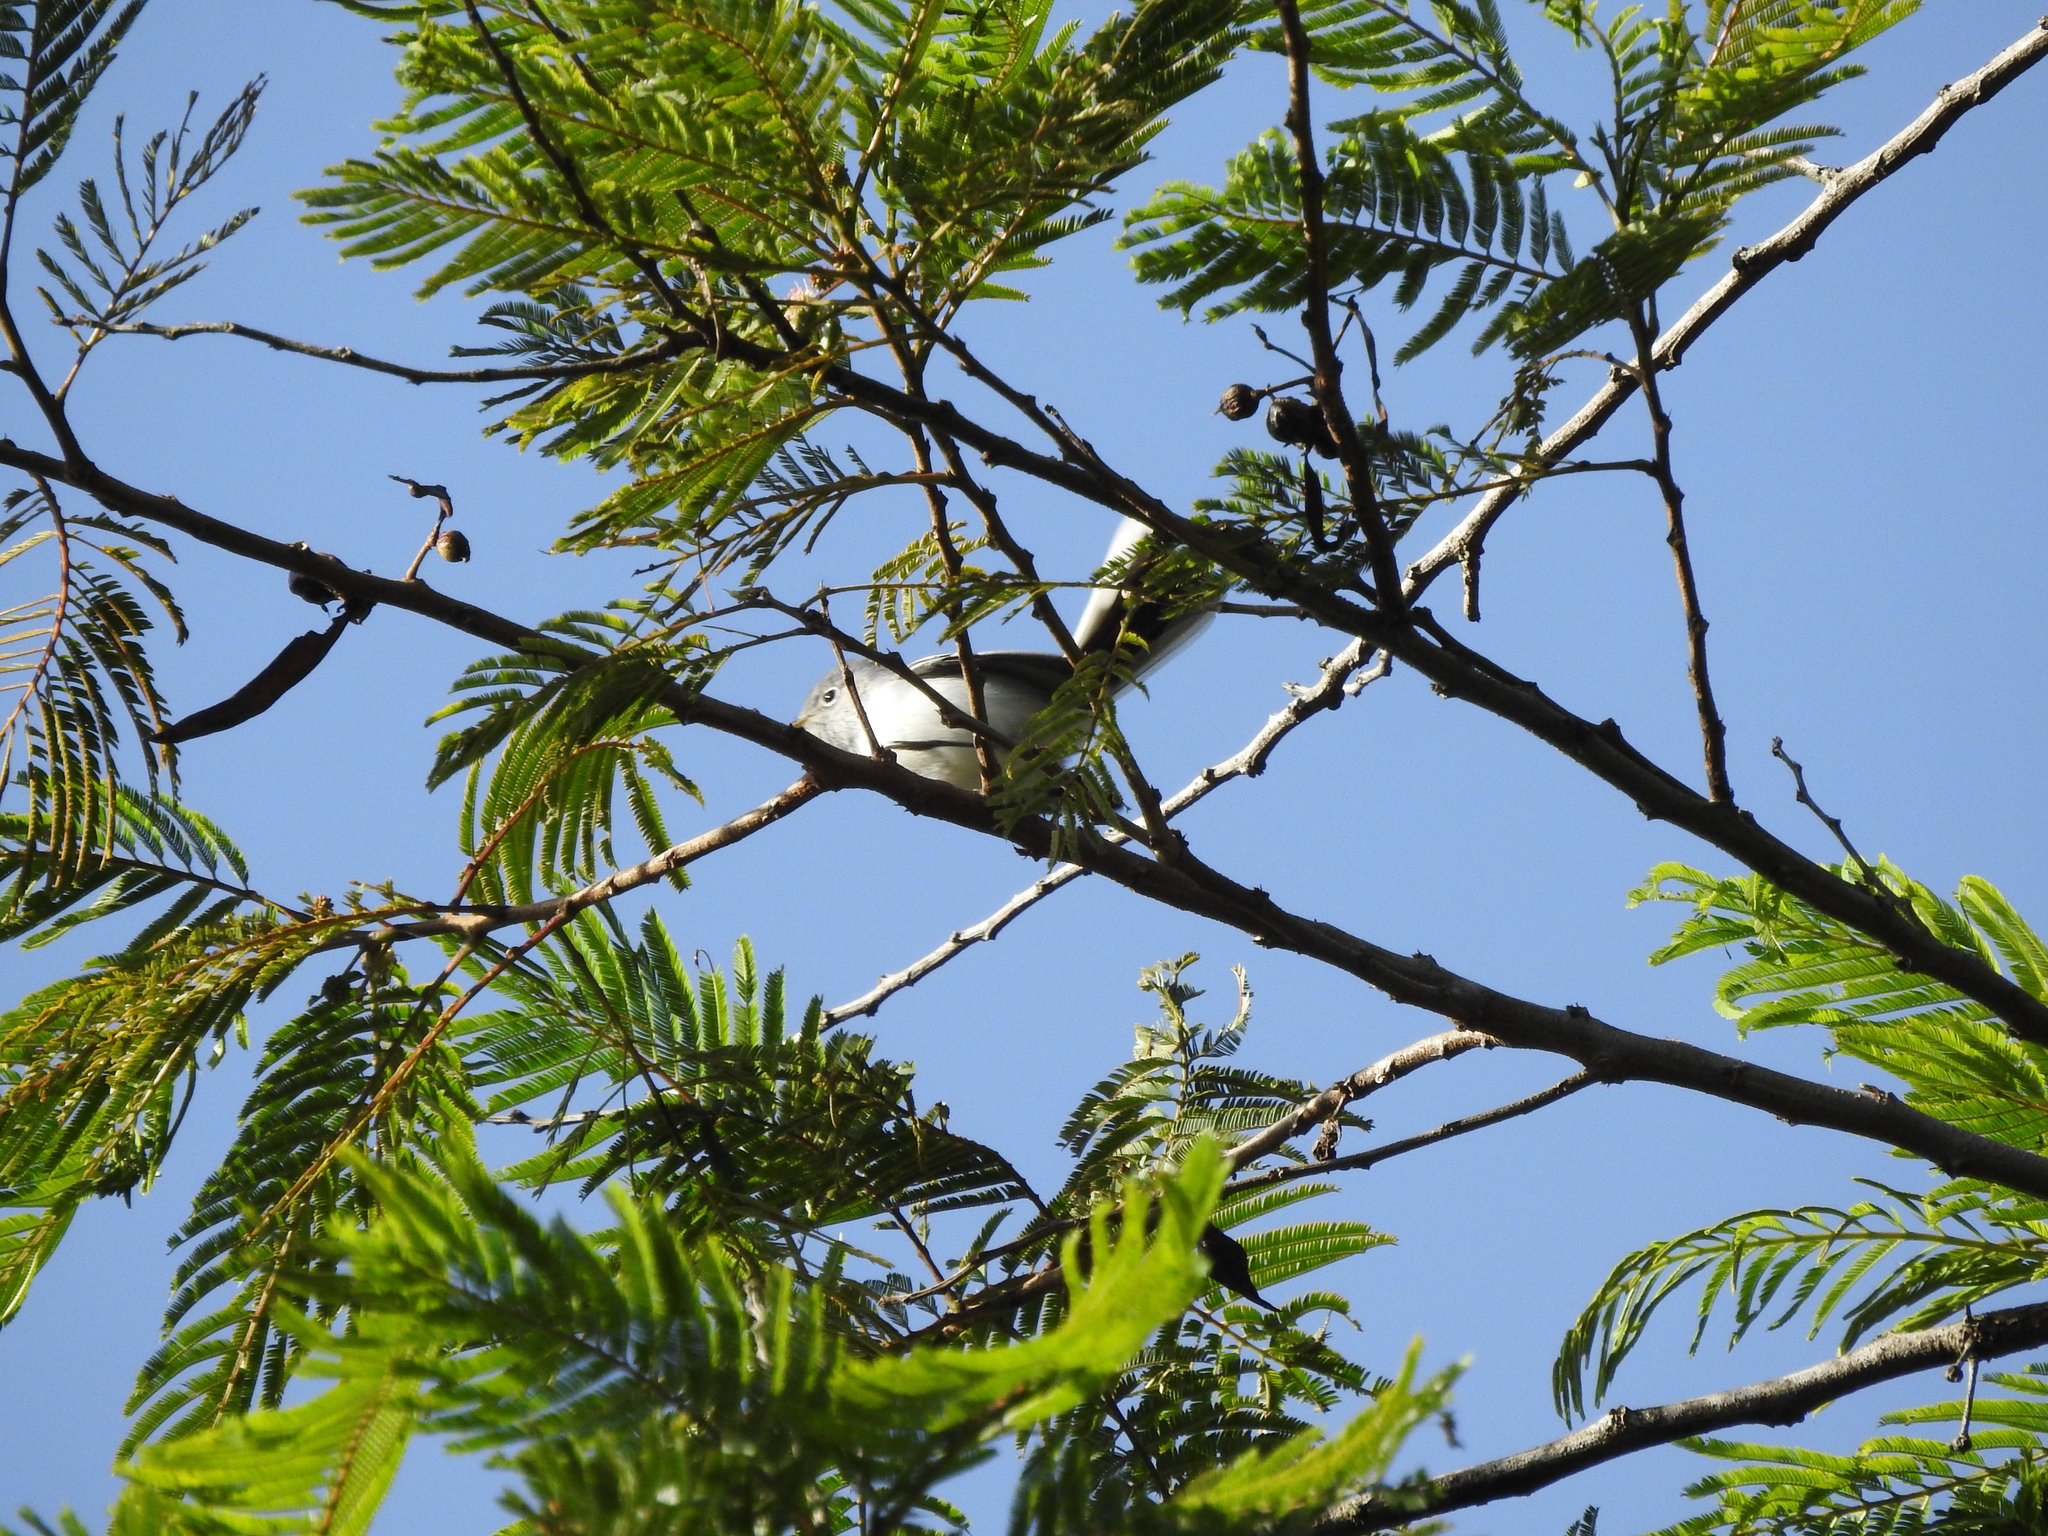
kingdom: Animalia
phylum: Chordata
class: Aves
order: Passeriformes
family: Polioptilidae
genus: Polioptila
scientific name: Polioptila caerulea
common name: Blue-gray gnatcatcher
